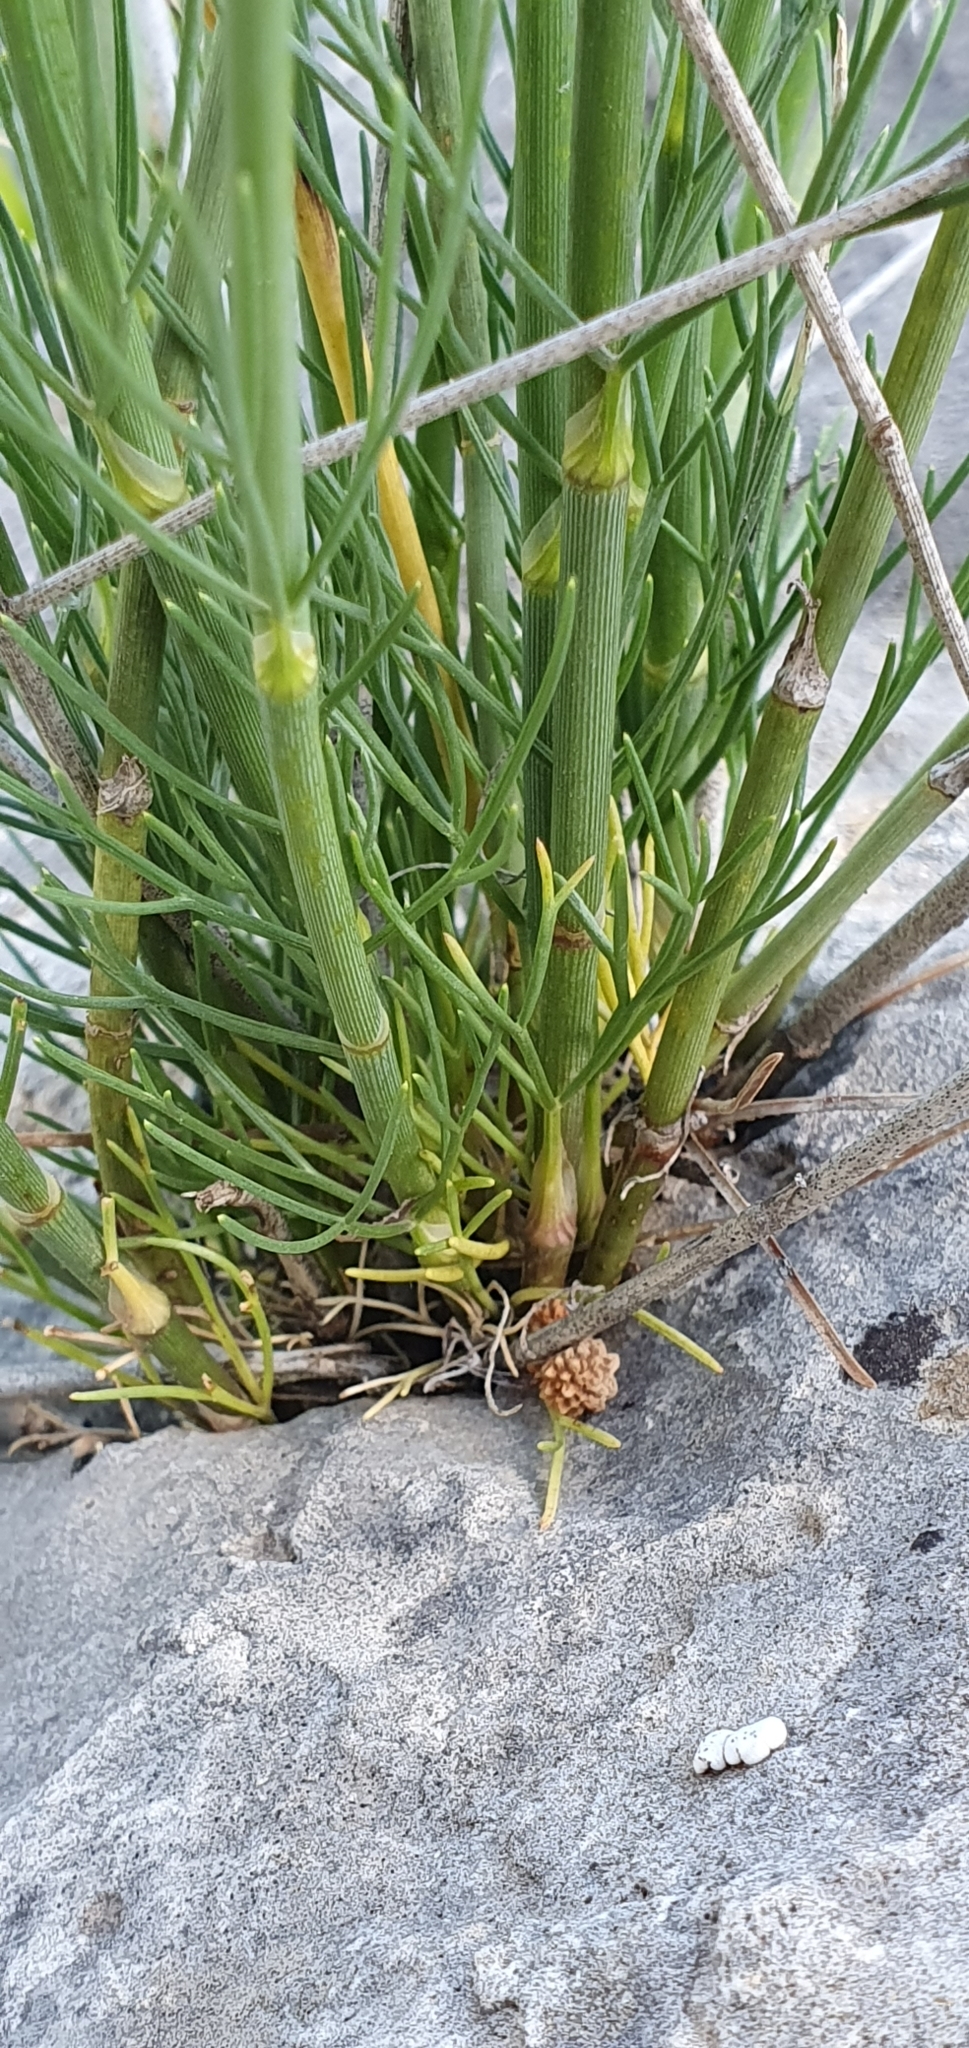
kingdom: Plantae
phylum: Tracheophyta
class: Magnoliopsida
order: Apiales
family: Apiaceae
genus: Deverra
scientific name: Deverra scoparia
